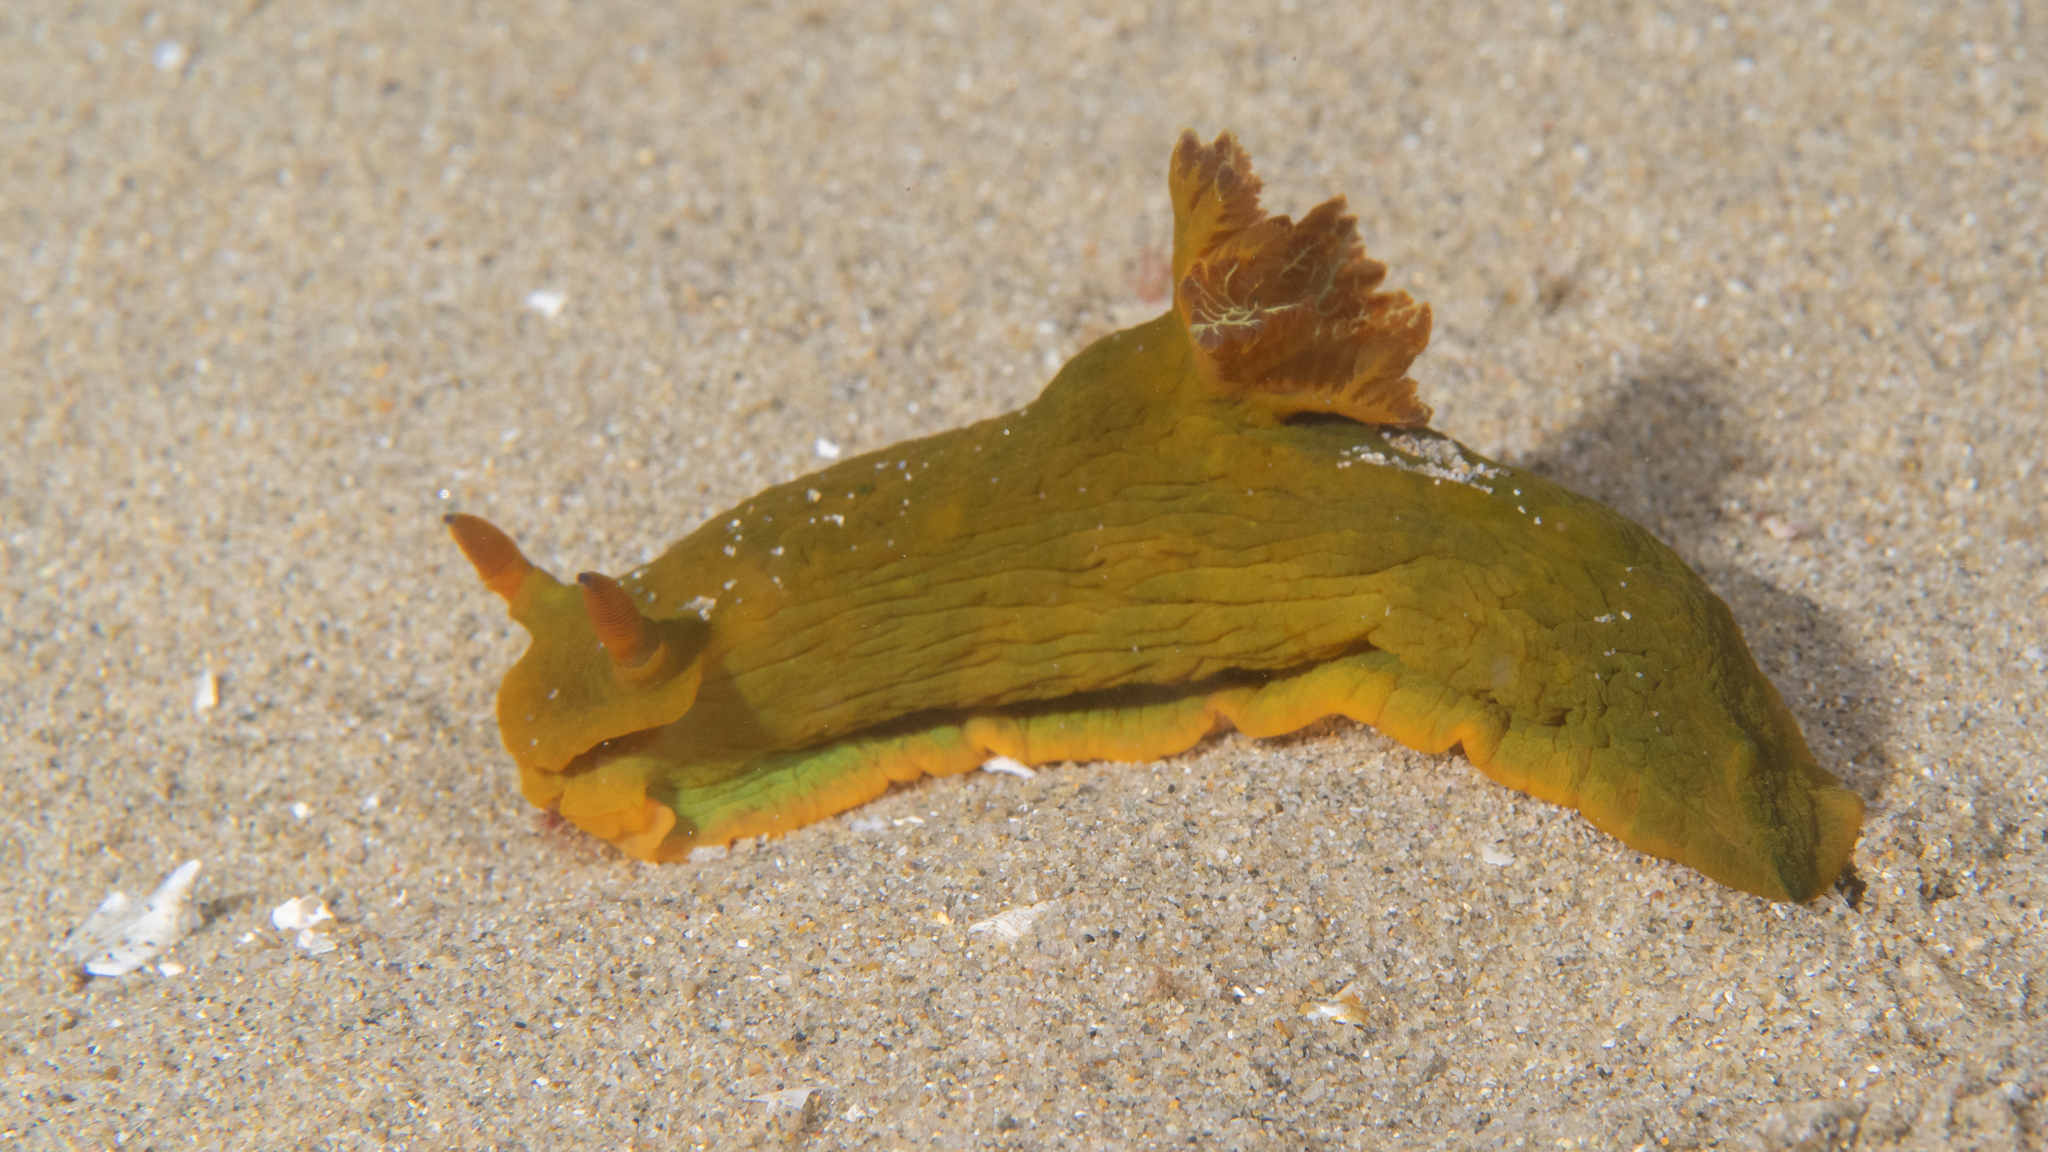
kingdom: Animalia
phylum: Mollusca
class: Gastropoda
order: Nudibranchia
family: Polyceridae
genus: Tambja
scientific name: Tambja dracomus
